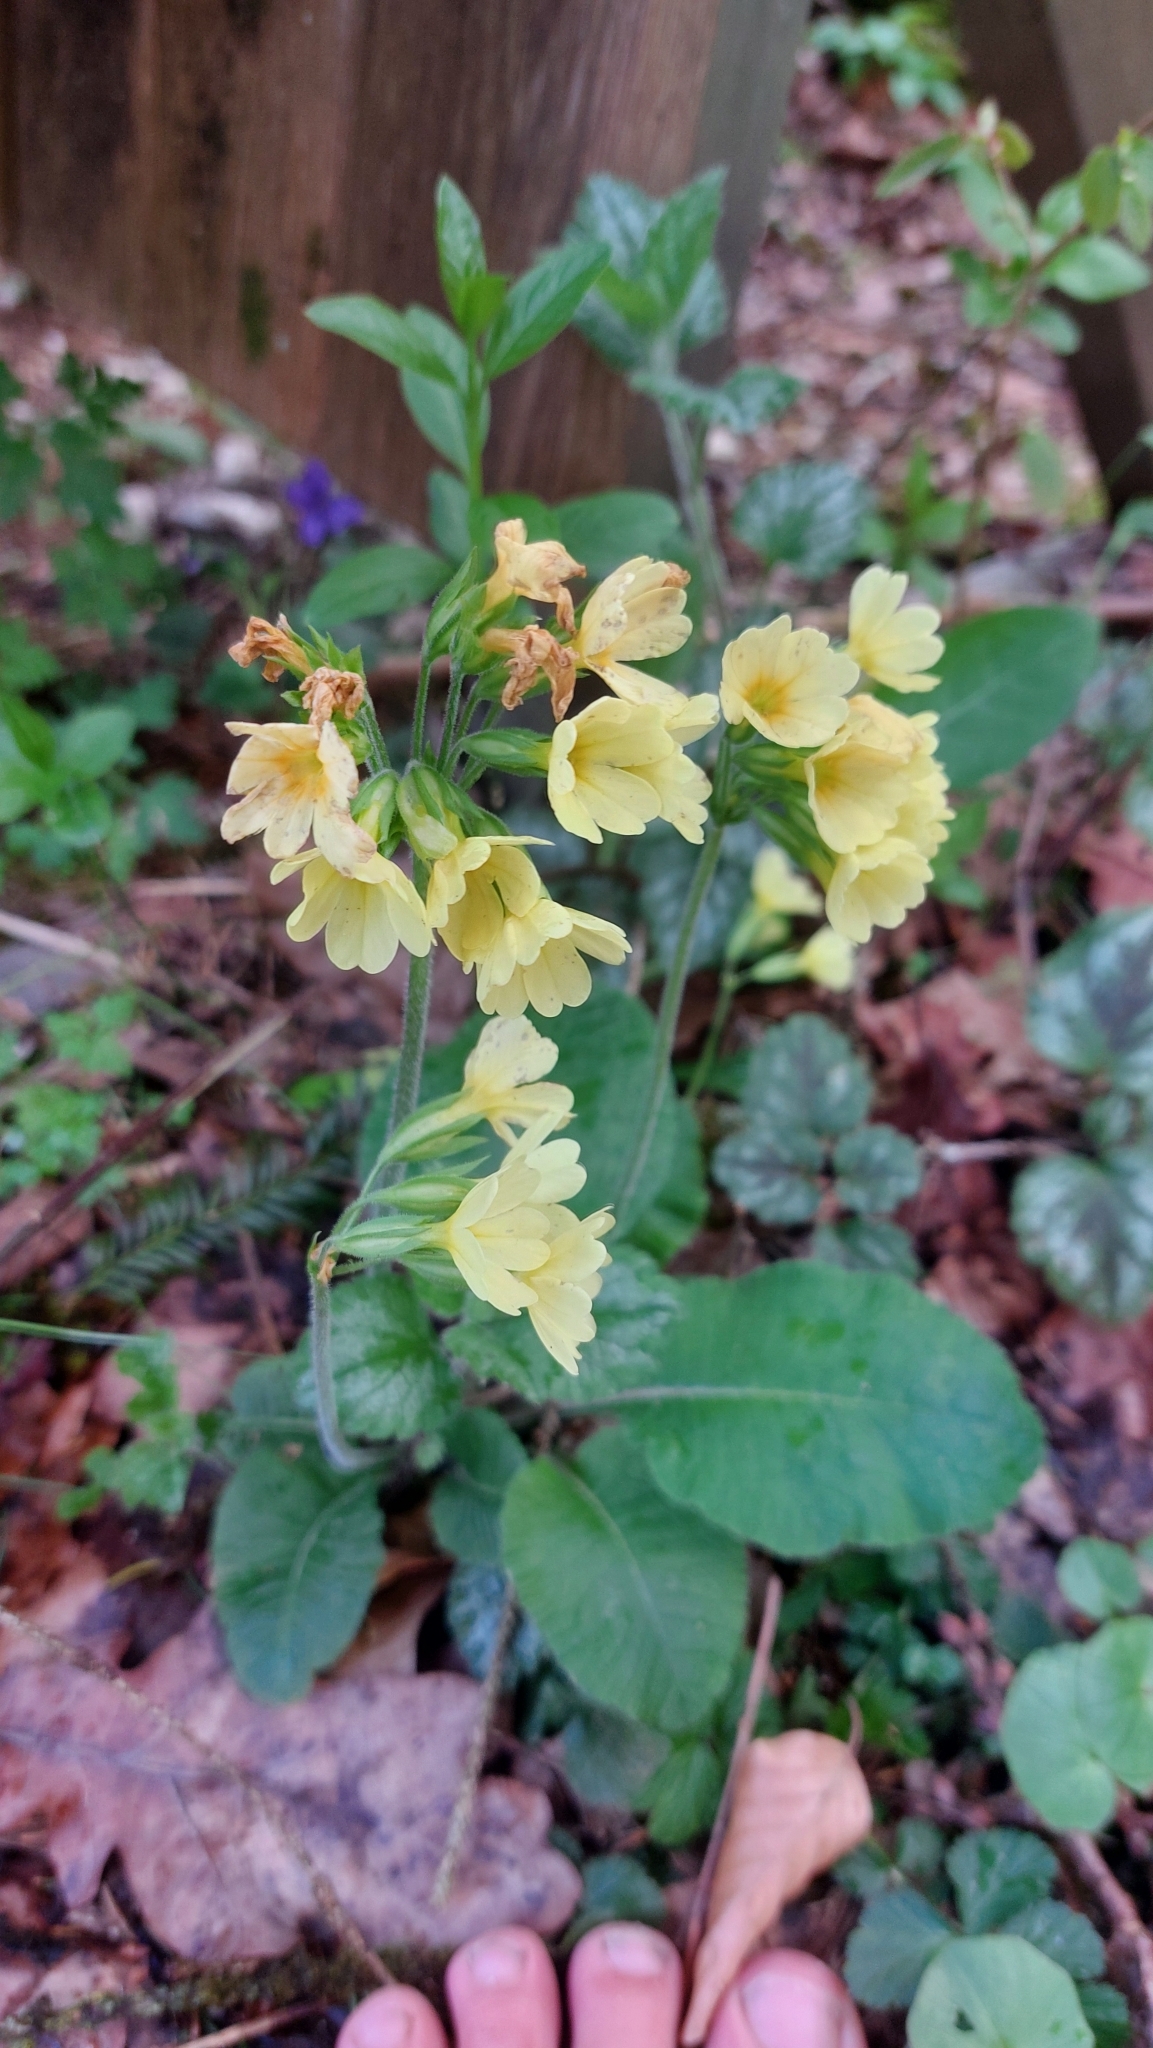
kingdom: Plantae
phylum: Tracheophyta
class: Magnoliopsida
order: Ericales
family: Primulaceae
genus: Primula
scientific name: Primula elatior
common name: Oxlip
